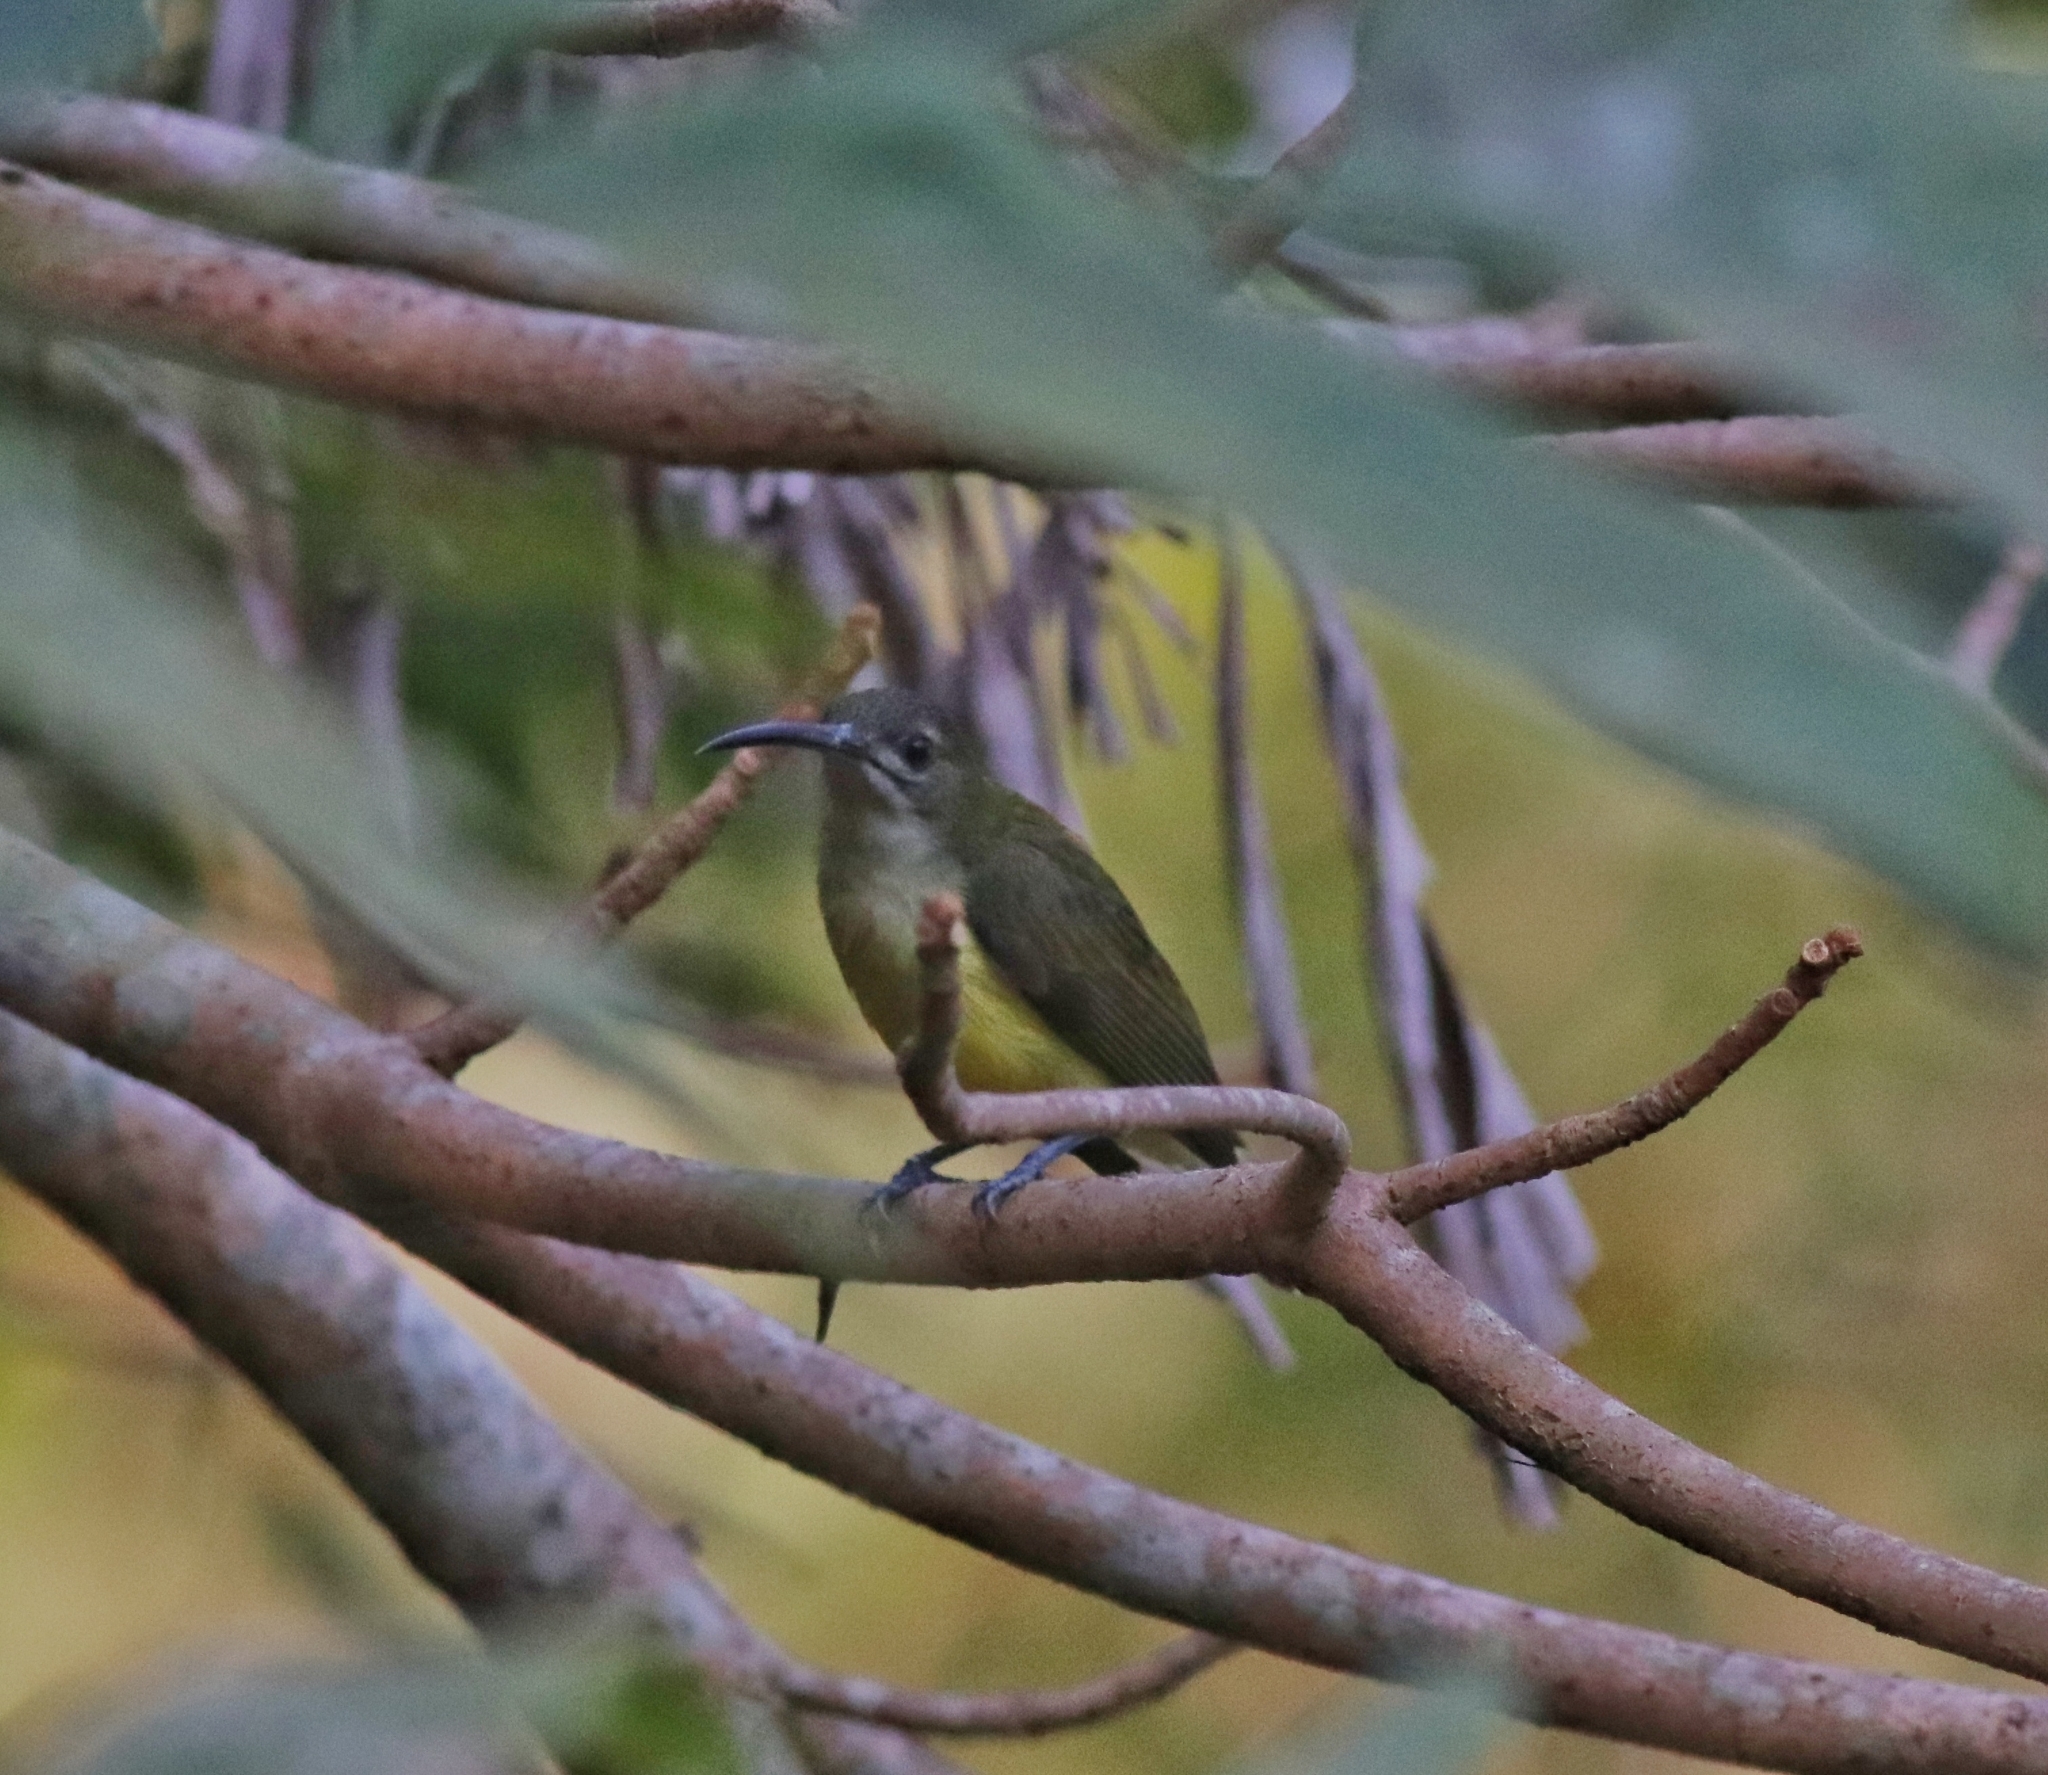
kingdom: Animalia
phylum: Chordata
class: Aves
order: Passeriformes
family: Nectariniidae
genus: Arachnothera
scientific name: Arachnothera longirostra
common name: Little spiderhunter
